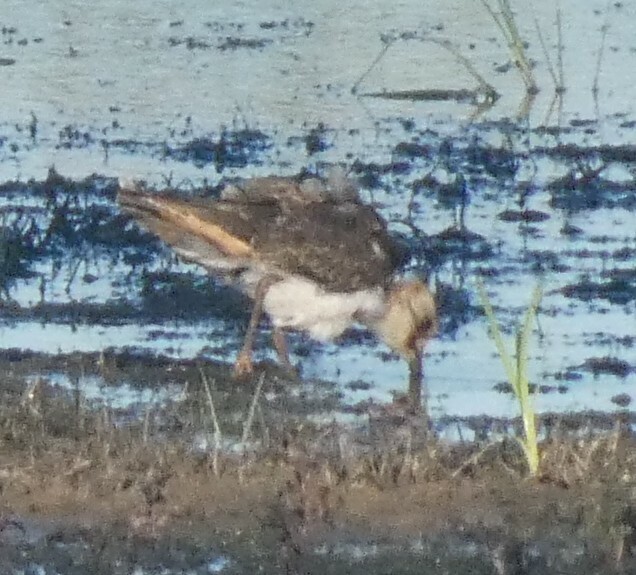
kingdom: Animalia
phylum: Chordata
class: Aves
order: Charadriiformes
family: Charadriidae
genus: Vanellus
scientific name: Vanellus vanellus
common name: Northern lapwing
